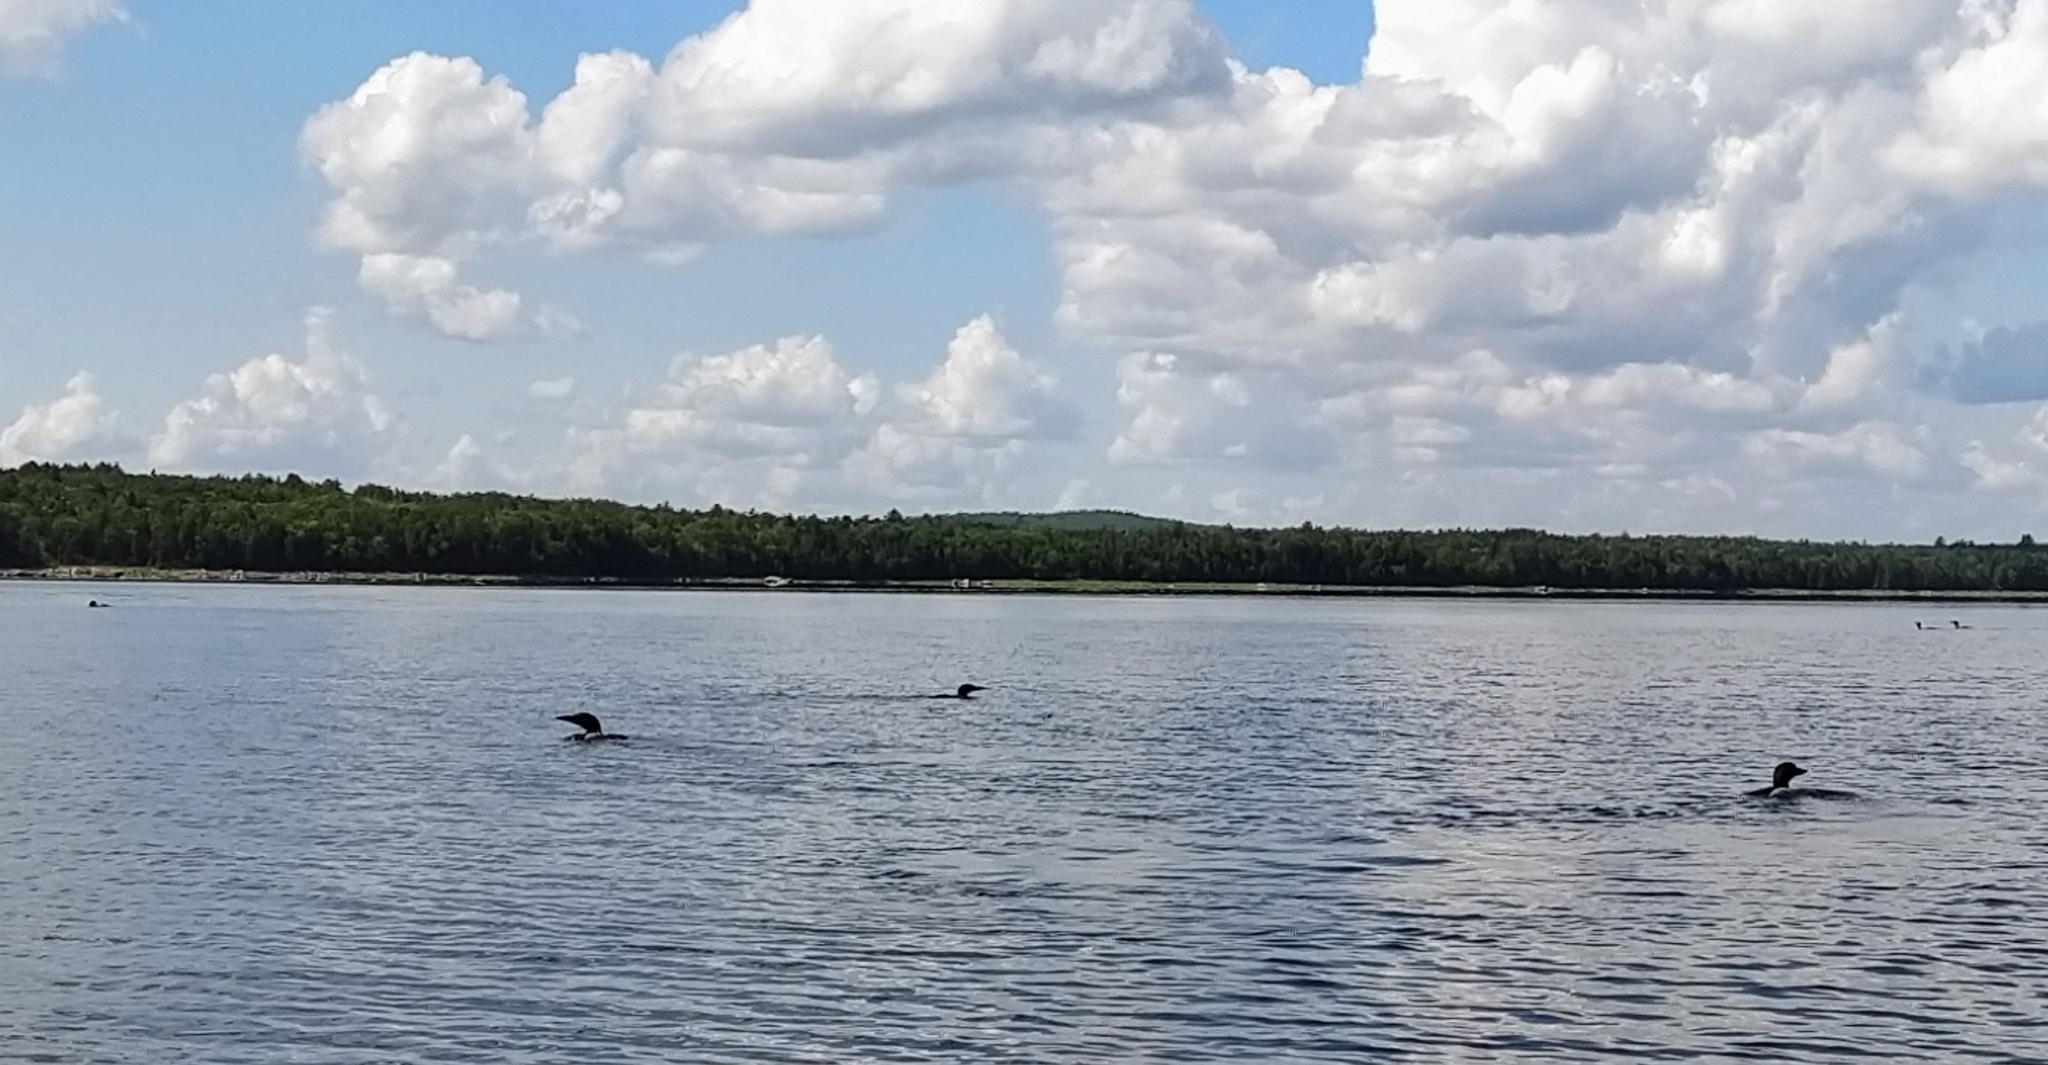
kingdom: Animalia
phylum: Chordata
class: Aves
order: Gaviiformes
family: Gaviidae
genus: Gavia
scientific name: Gavia immer
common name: Common loon
